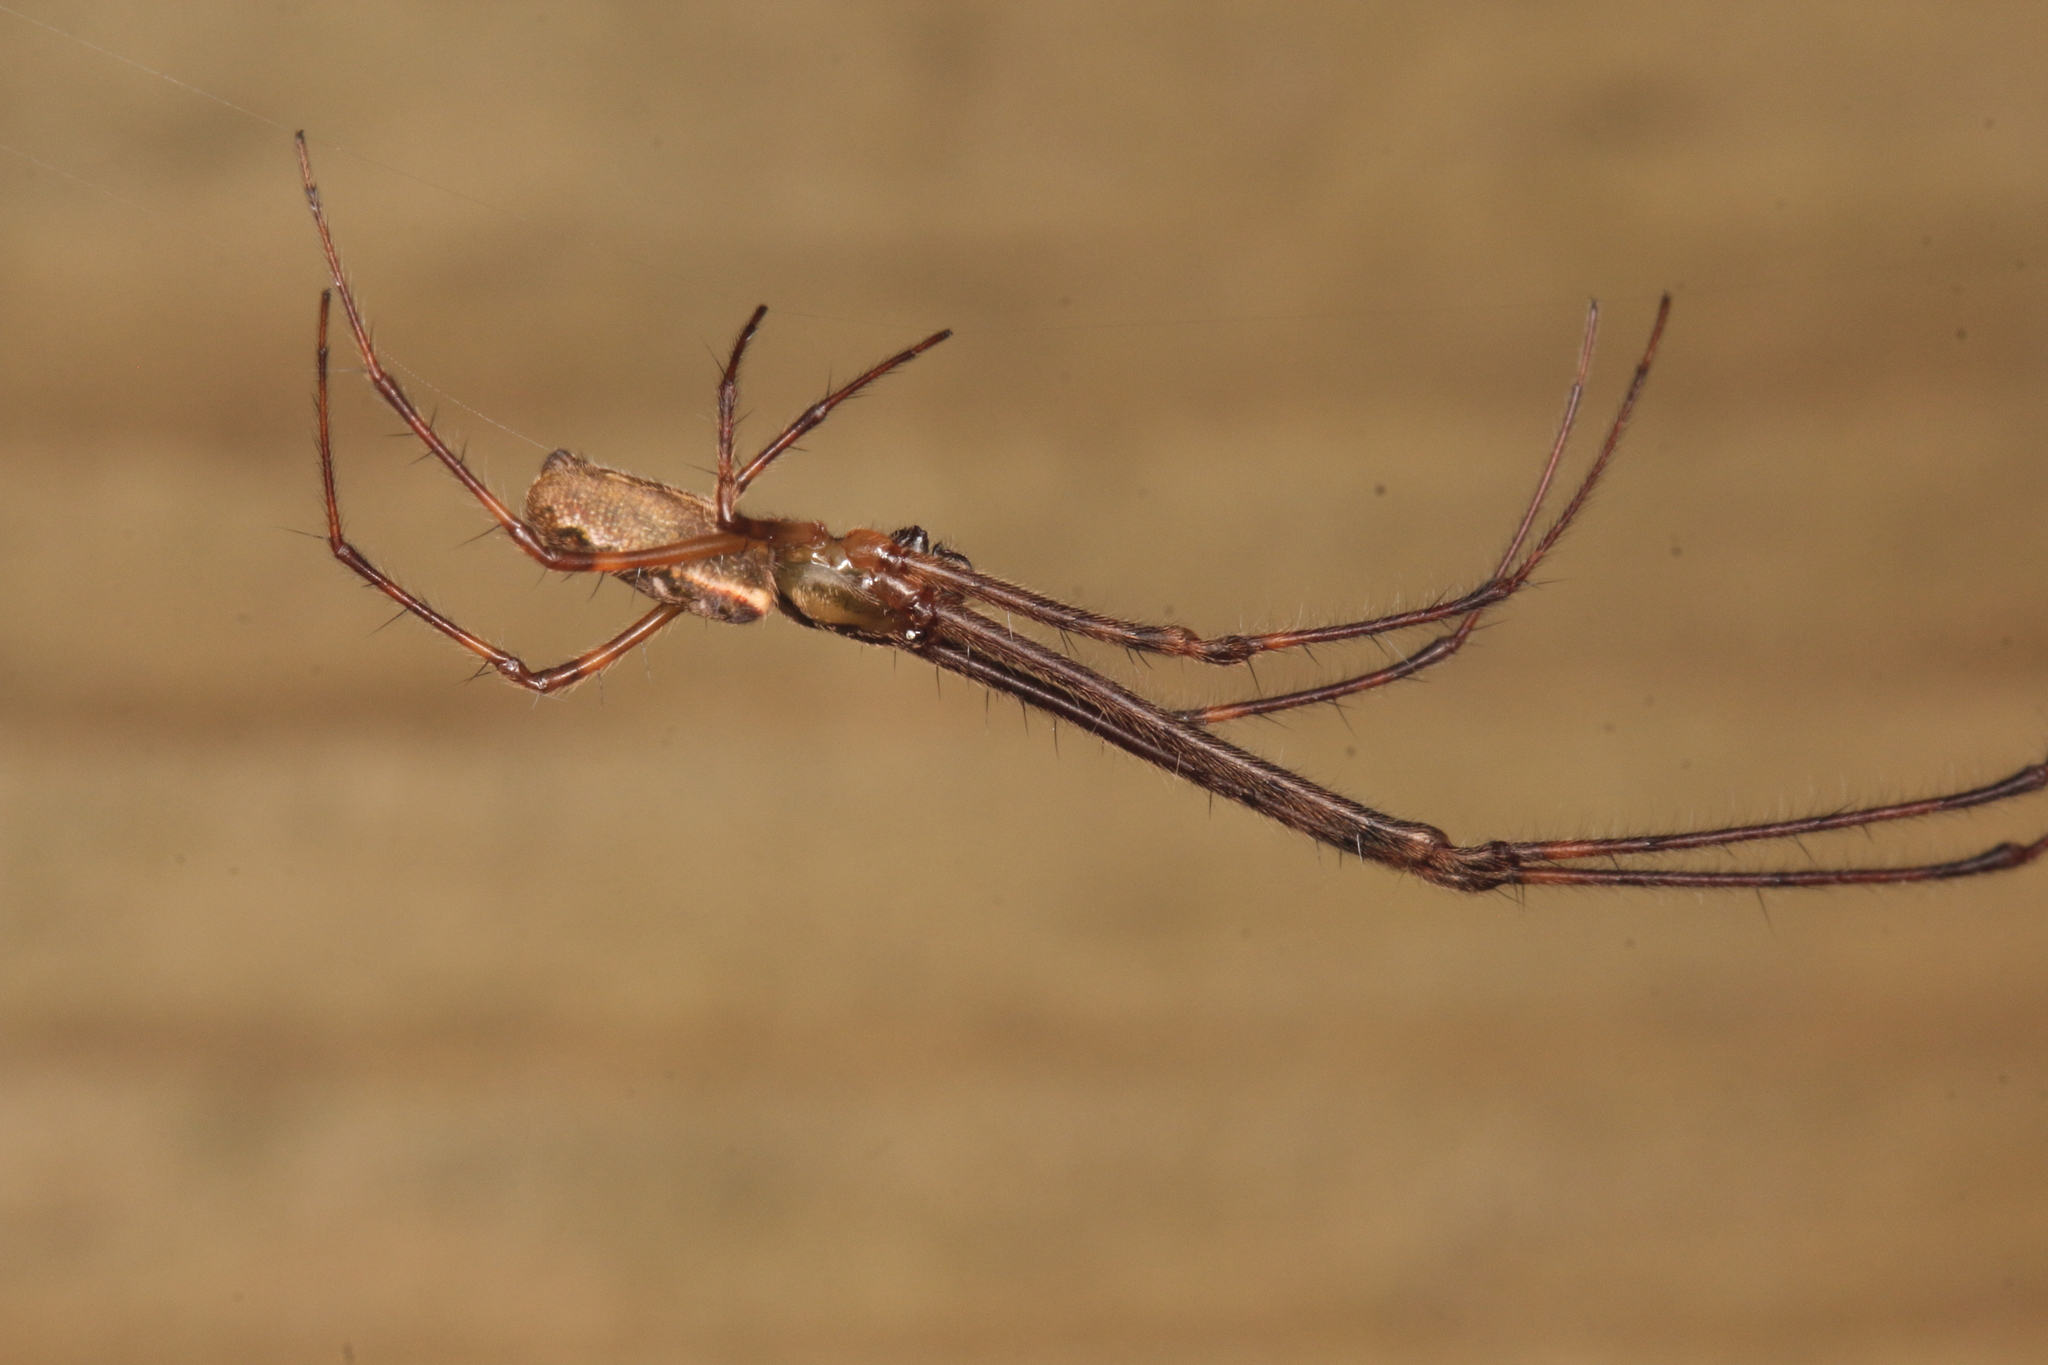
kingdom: Animalia
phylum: Arthropoda
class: Arachnida
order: Araneae
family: Tetragnathidae
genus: Nanometa
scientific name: Nanometa lagenifera
